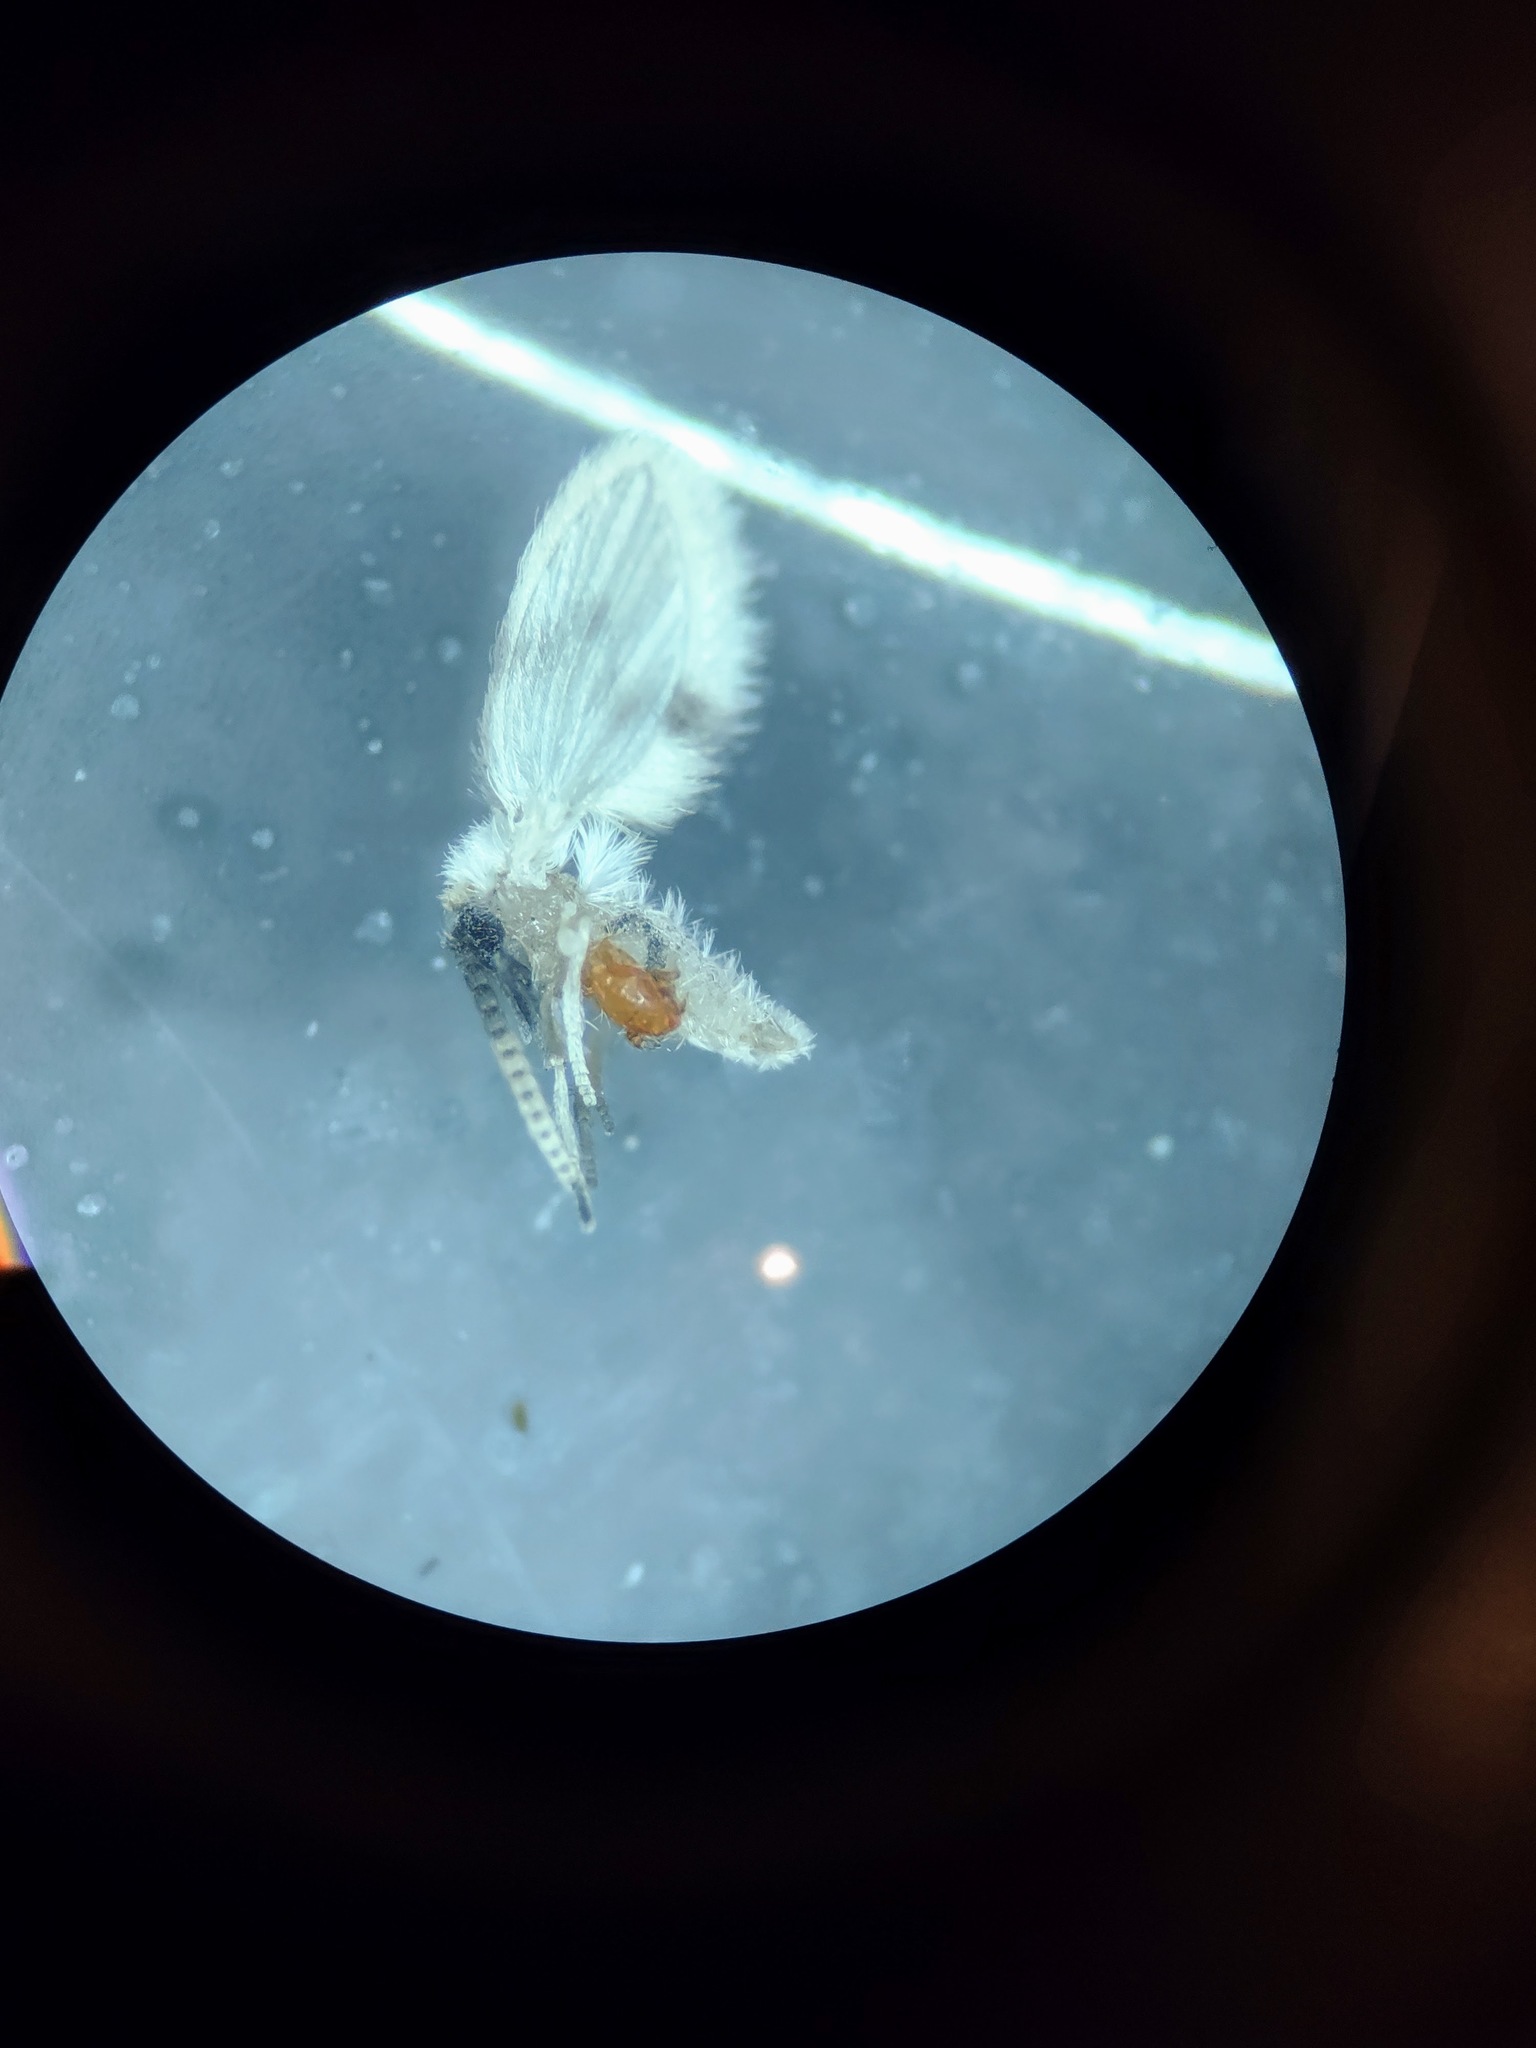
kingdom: Animalia
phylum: Arthropoda
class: Insecta
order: Diptera
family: Psychodidae
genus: Psychoda
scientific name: Psychoda sigma
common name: Moth fly
